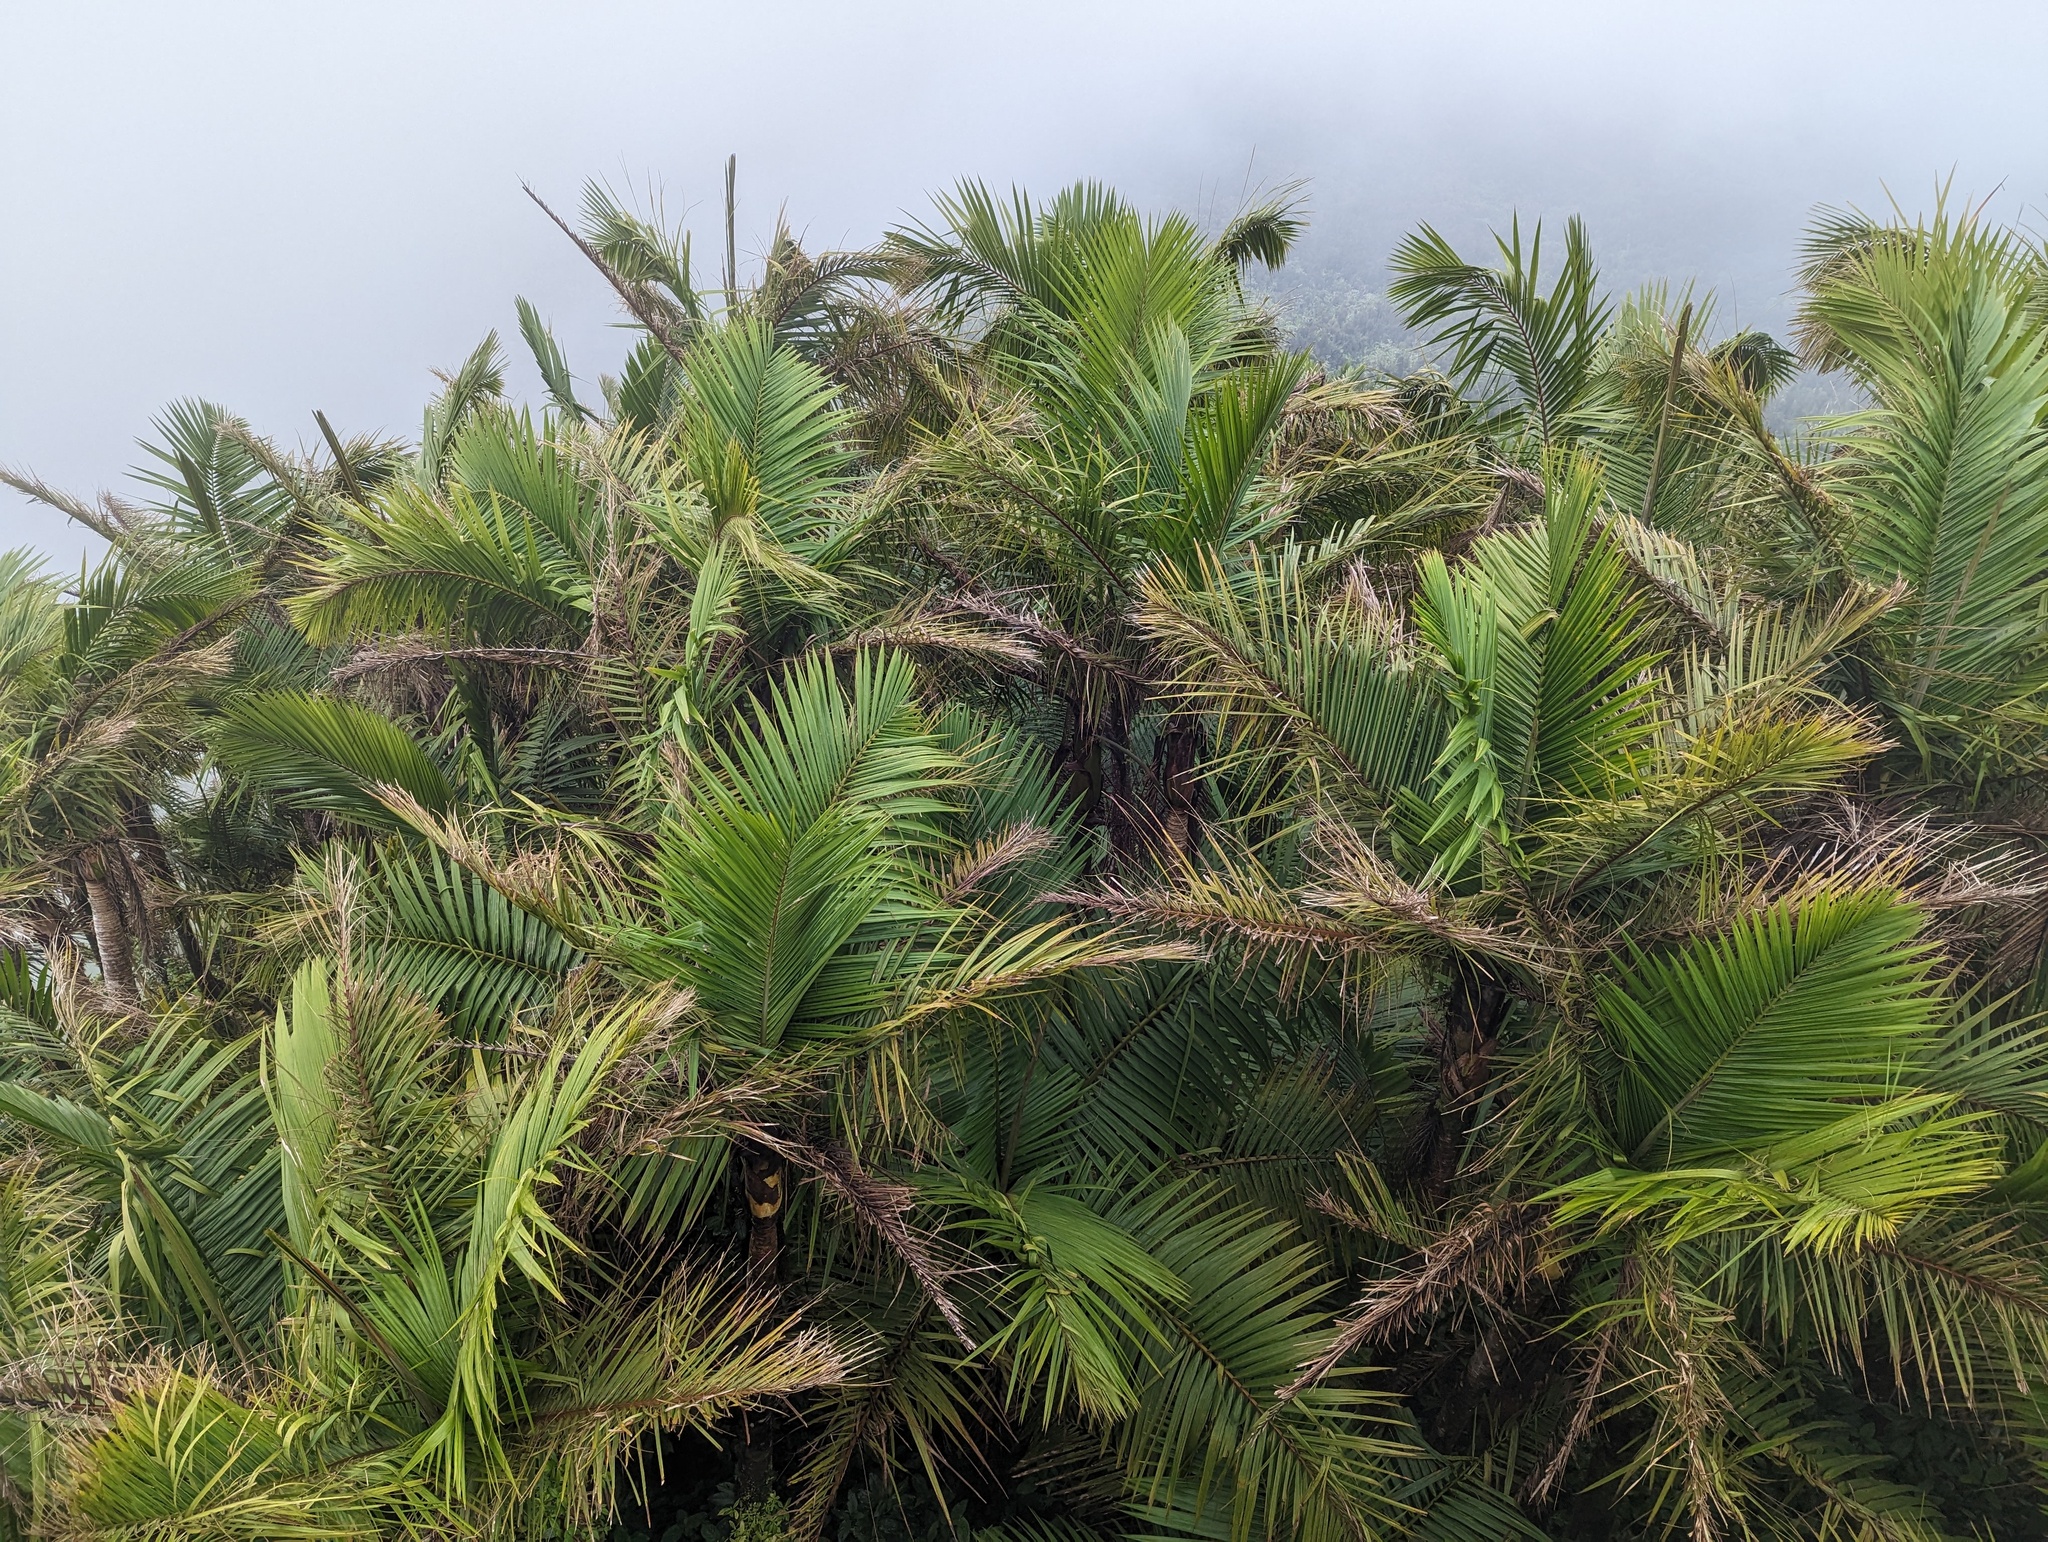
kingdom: Plantae
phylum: Tracheophyta
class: Liliopsida
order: Arecales
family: Arecaceae
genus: Prestoea
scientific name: Prestoea acuminata
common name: Sierran palm
